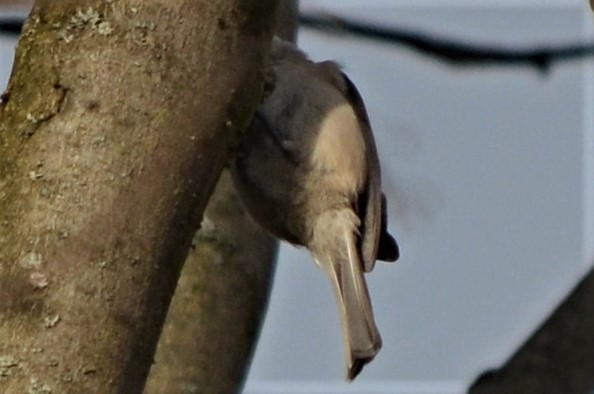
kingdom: Animalia
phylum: Chordata
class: Aves
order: Passeriformes
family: Paridae
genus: Poecile
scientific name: Poecile palustris
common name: Marsh tit
